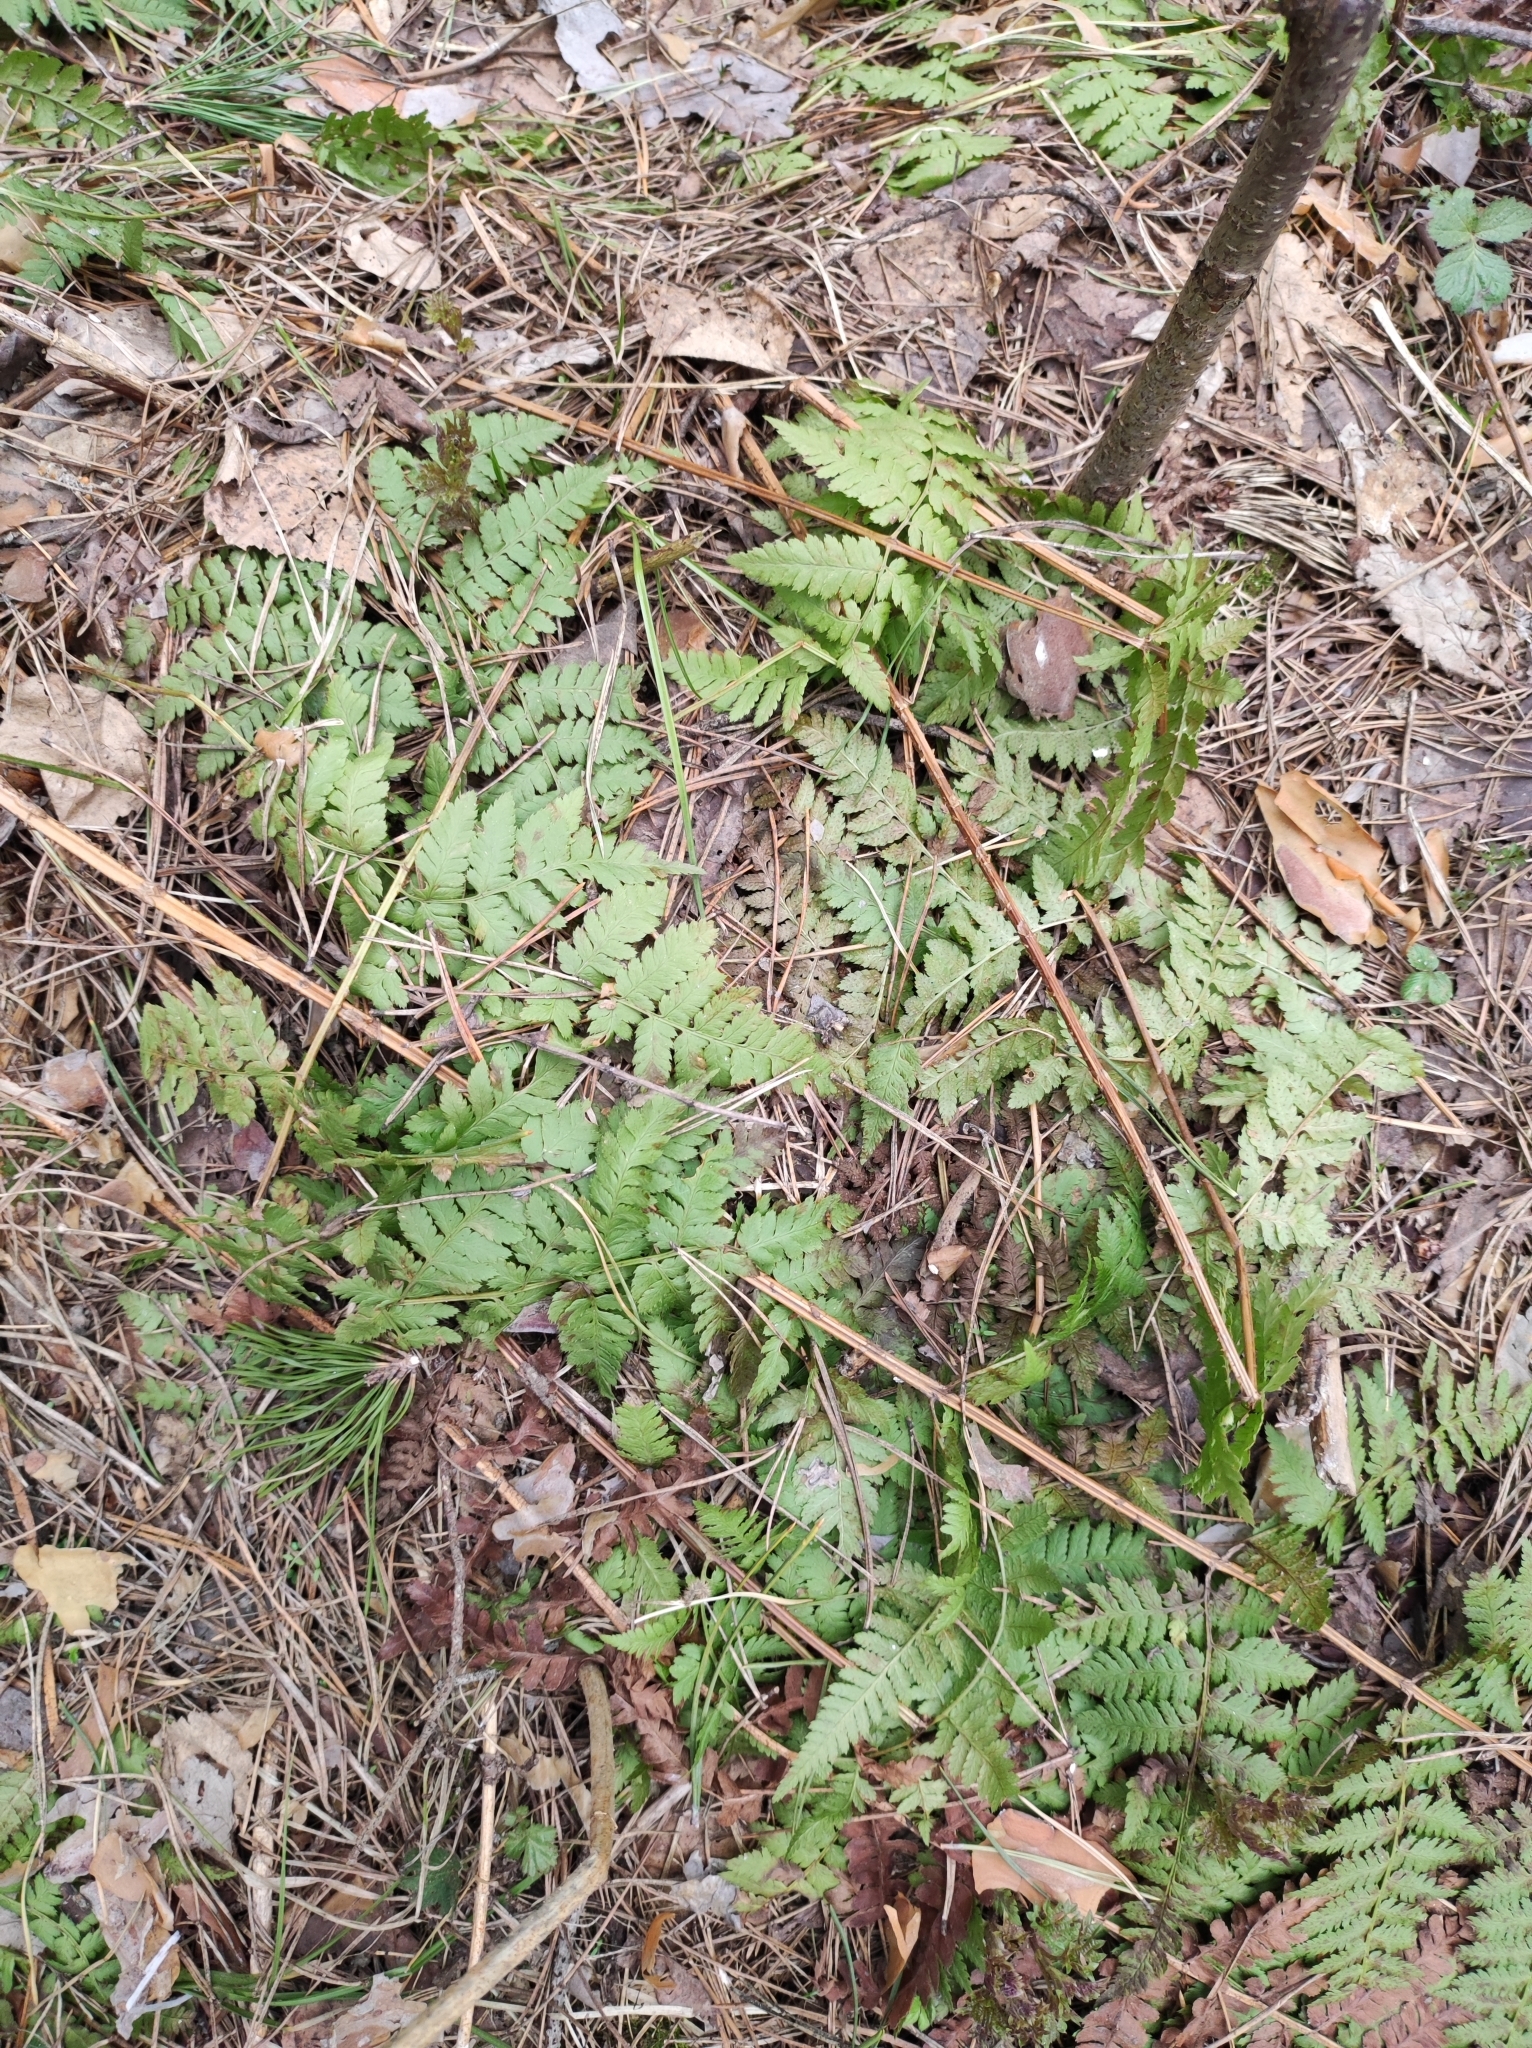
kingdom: Plantae
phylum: Tracheophyta
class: Polypodiopsida
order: Polypodiales
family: Dryopteridaceae
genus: Dryopteris
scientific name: Dryopteris carthusiana
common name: Narrow buckler-fern
